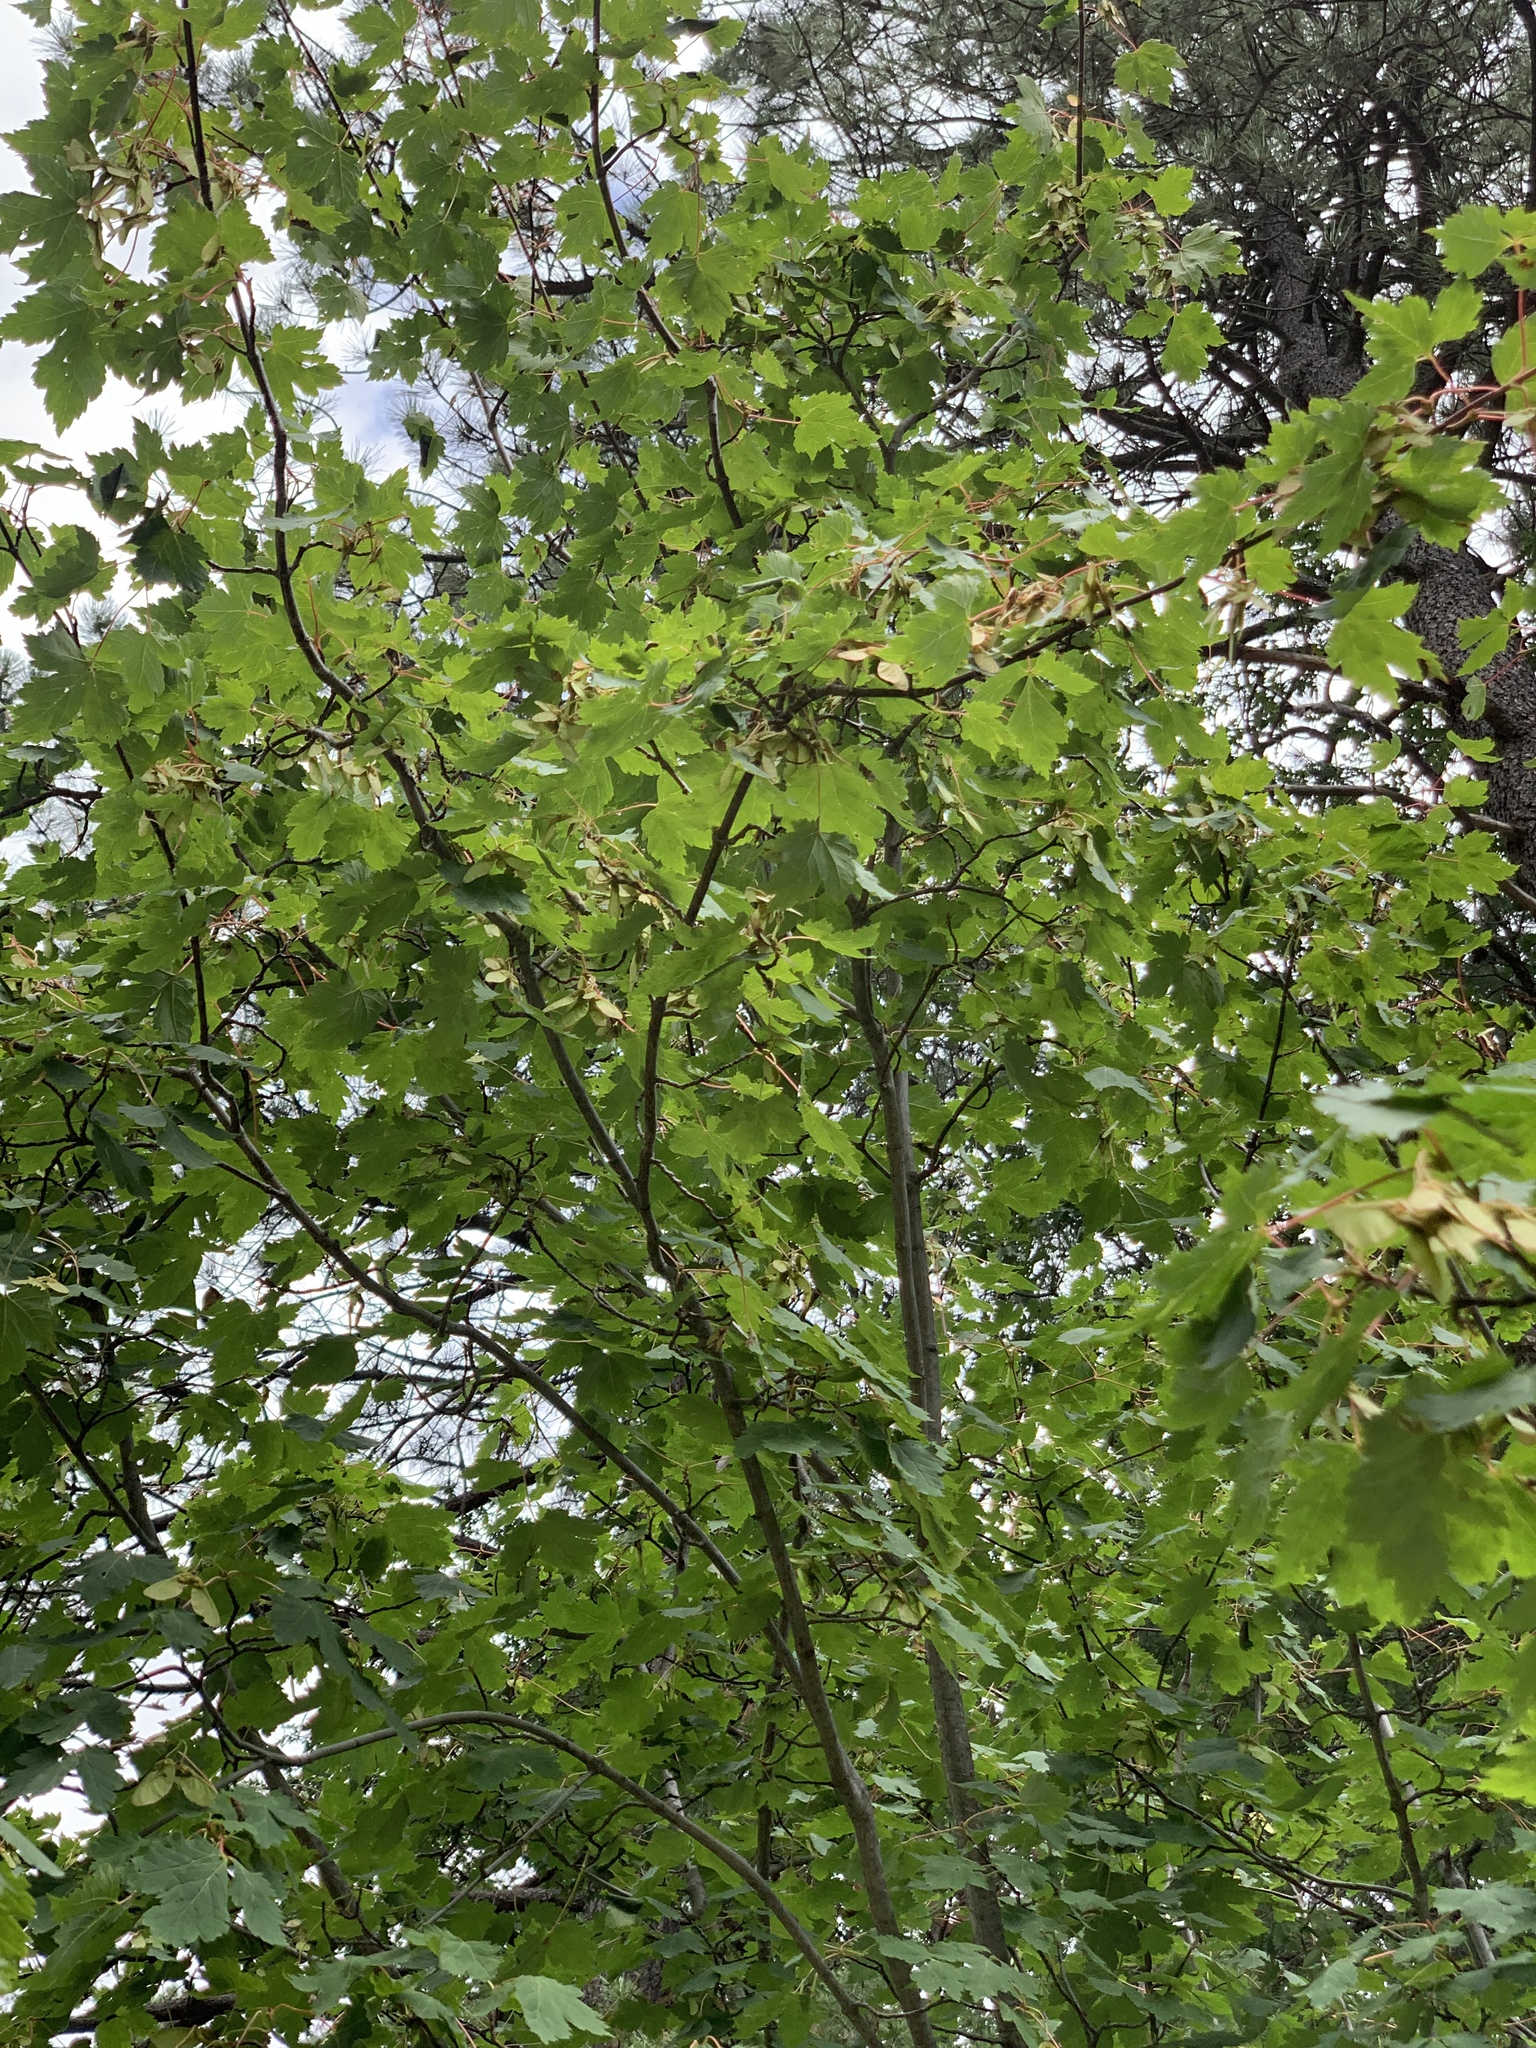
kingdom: Plantae
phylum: Tracheophyta
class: Magnoliopsida
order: Sapindales
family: Sapindaceae
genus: Acer
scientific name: Acer glabrum
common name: Rocky mountain maple
